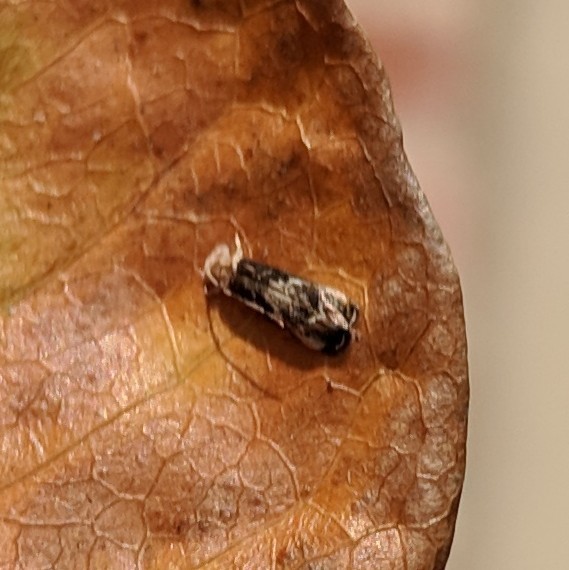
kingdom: Animalia
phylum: Arthropoda
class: Insecta
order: Lepidoptera
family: Dryadaulidae
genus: Dryadaula
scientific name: Dryadaula terpsichorella
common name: Dancing moth
